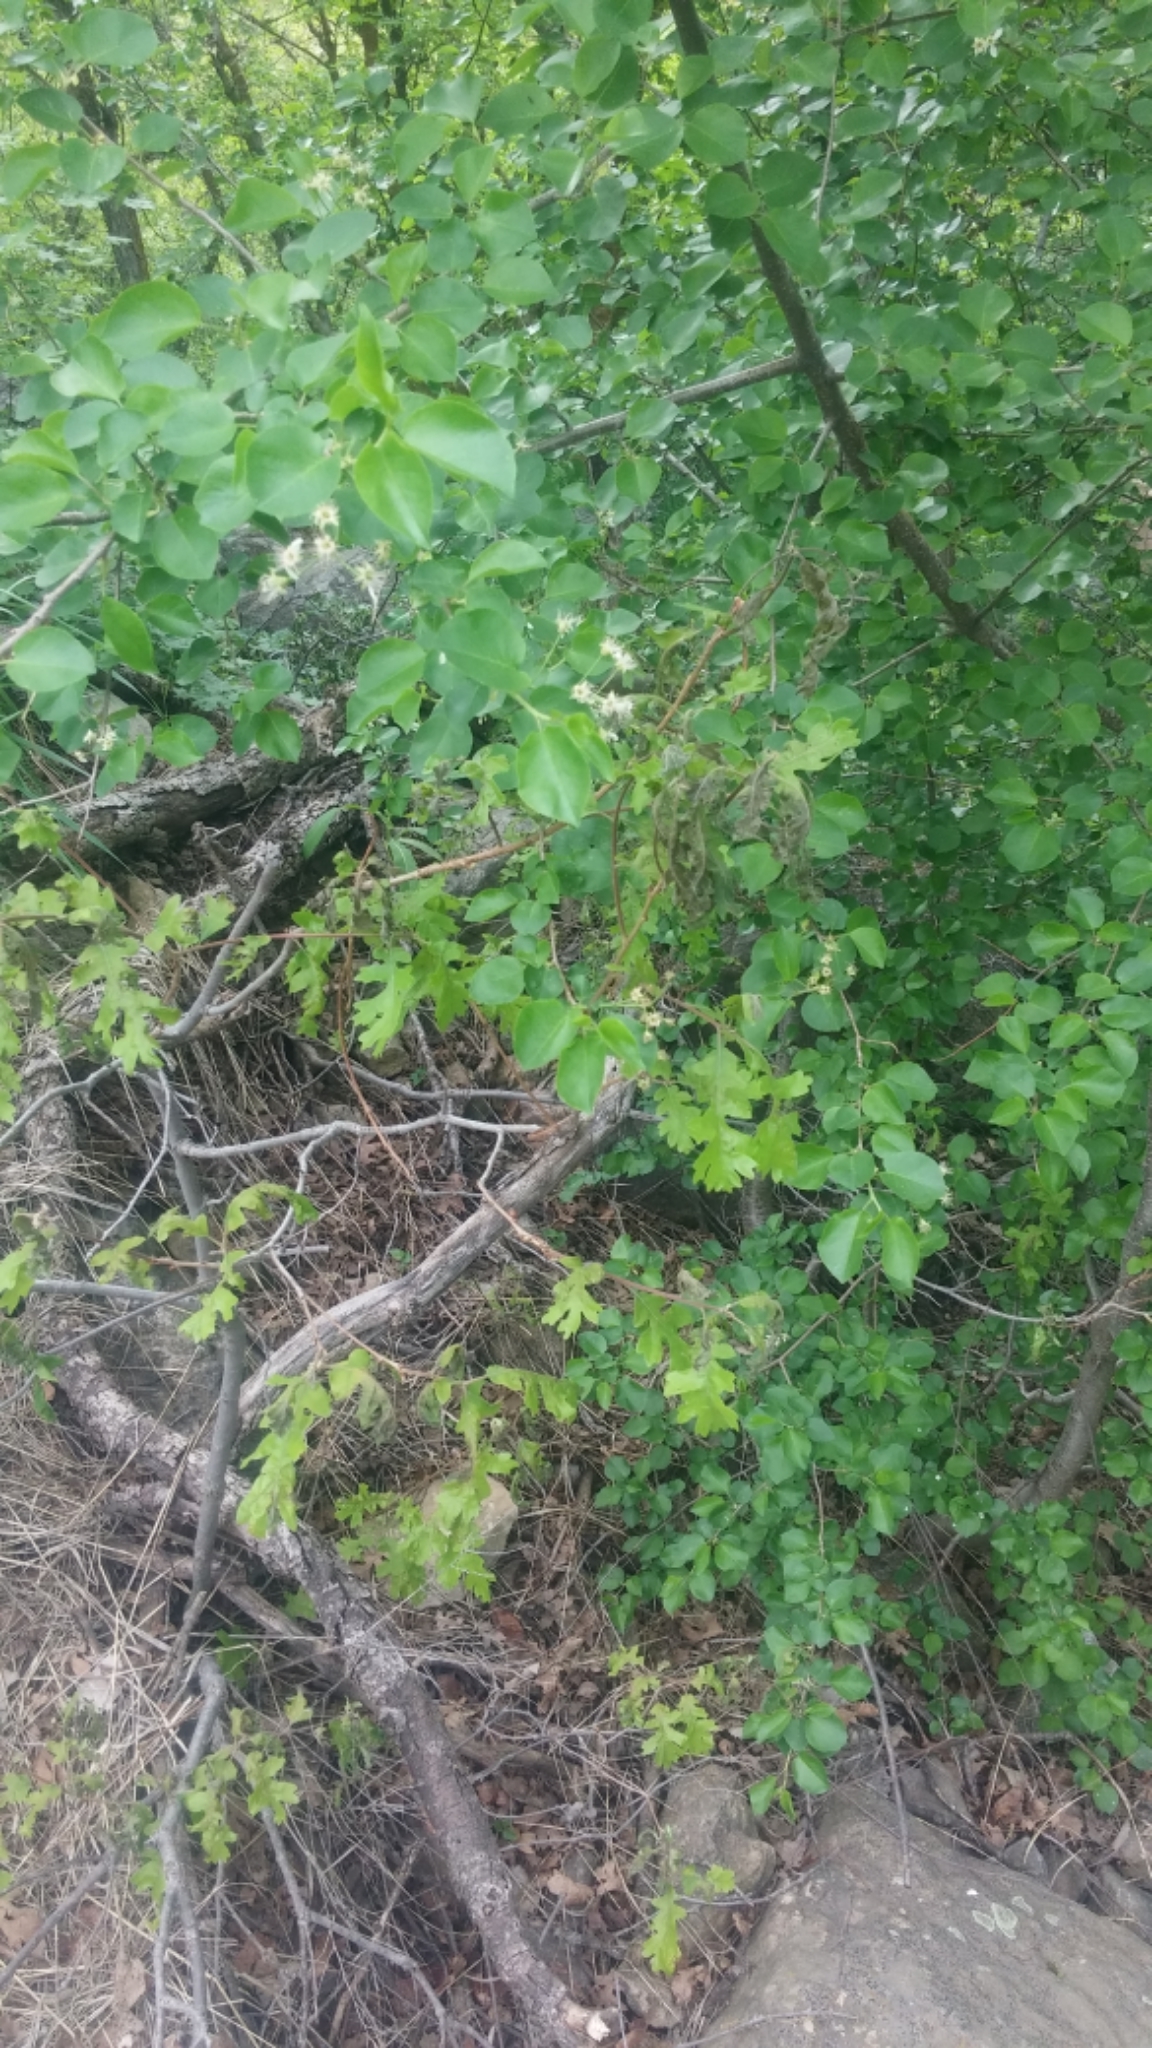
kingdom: Plantae
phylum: Tracheophyta
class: Magnoliopsida
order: Rosales
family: Rosaceae
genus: Prunus
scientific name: Prunus mahaleb
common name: Mahaleb cherry
